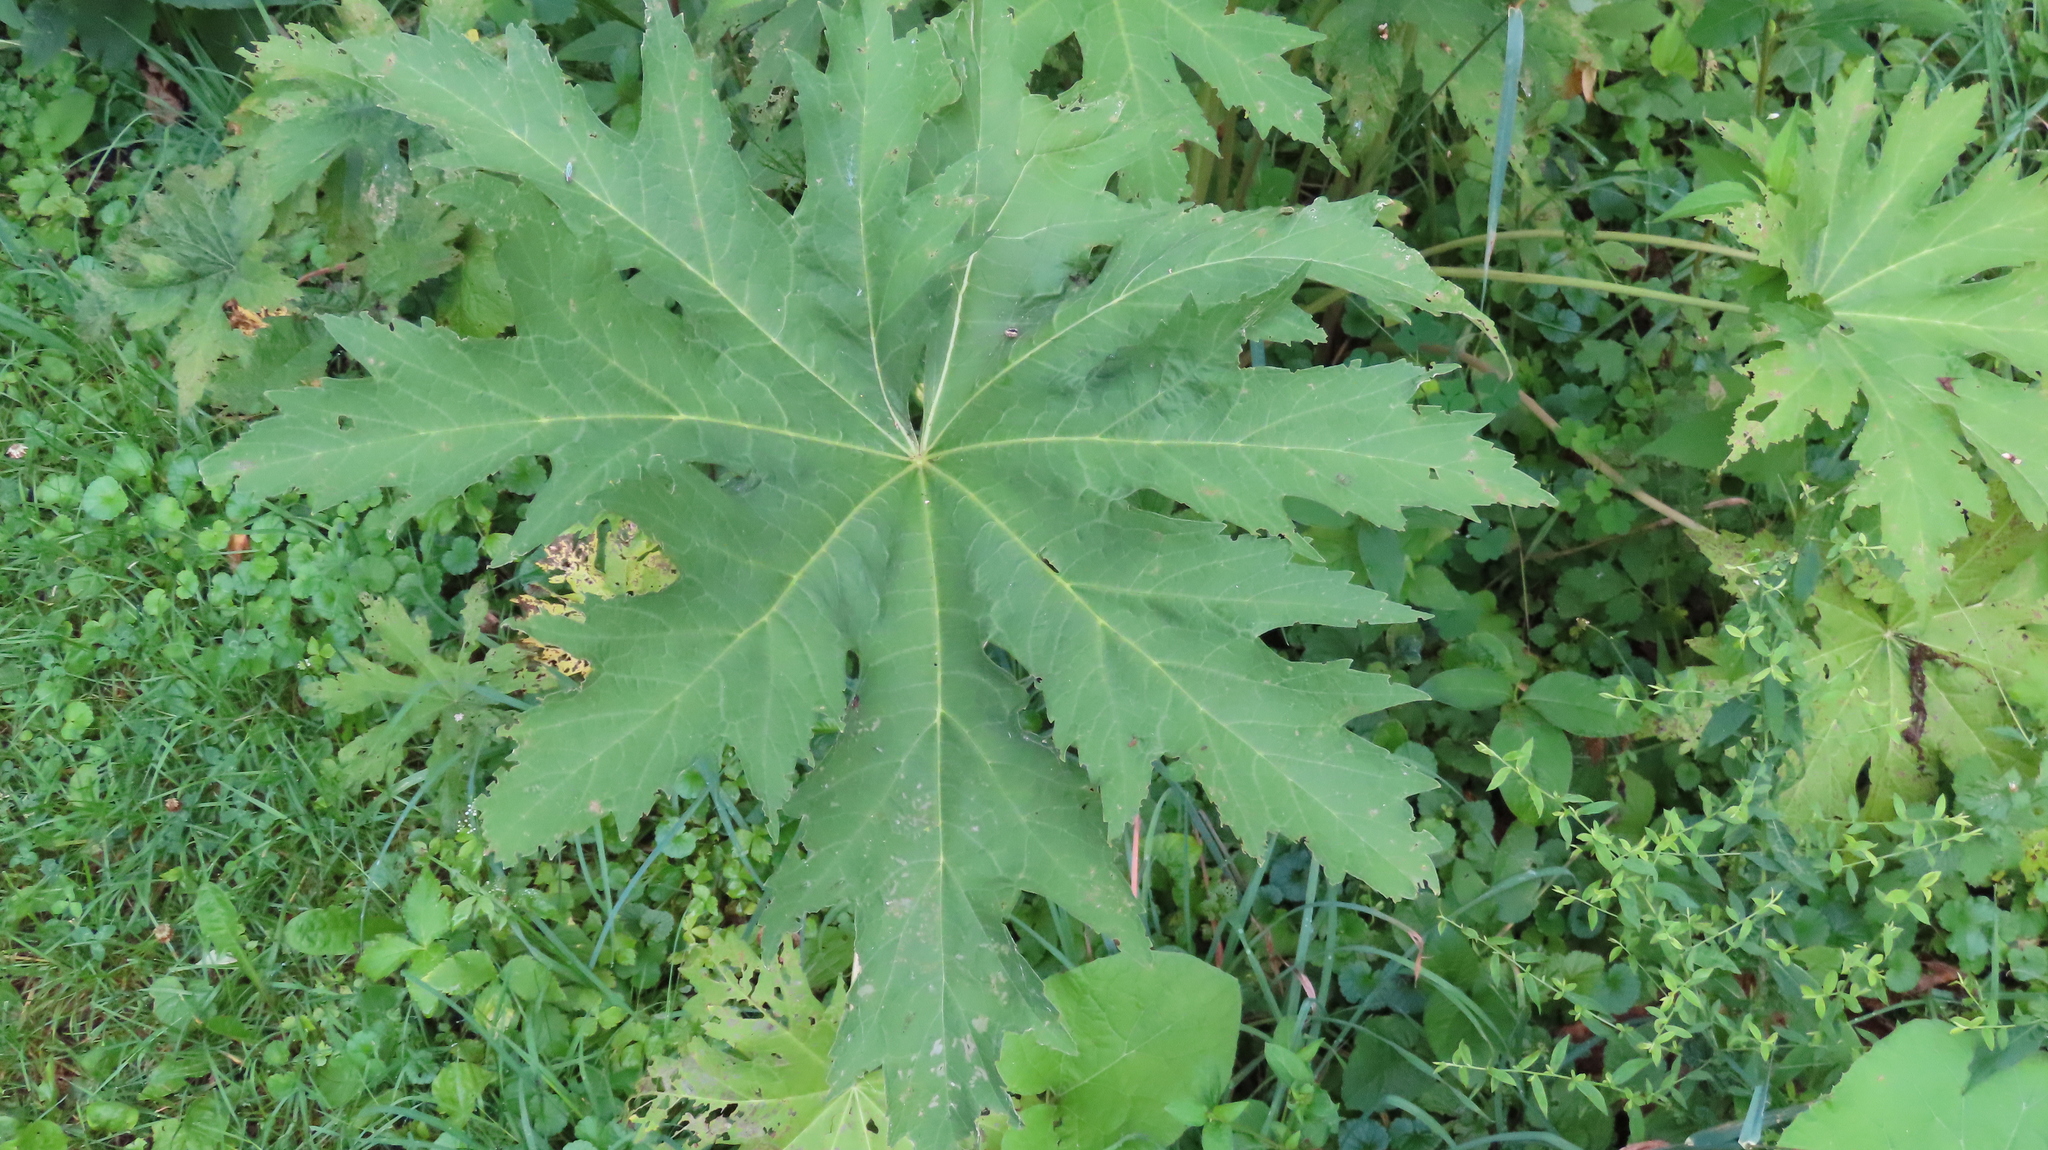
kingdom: Plantae
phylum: Tracheophyta
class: Magnoliopsida
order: Malvales
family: Malvaceae
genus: Napaea
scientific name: Napaea dioica
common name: Glade-mallow
